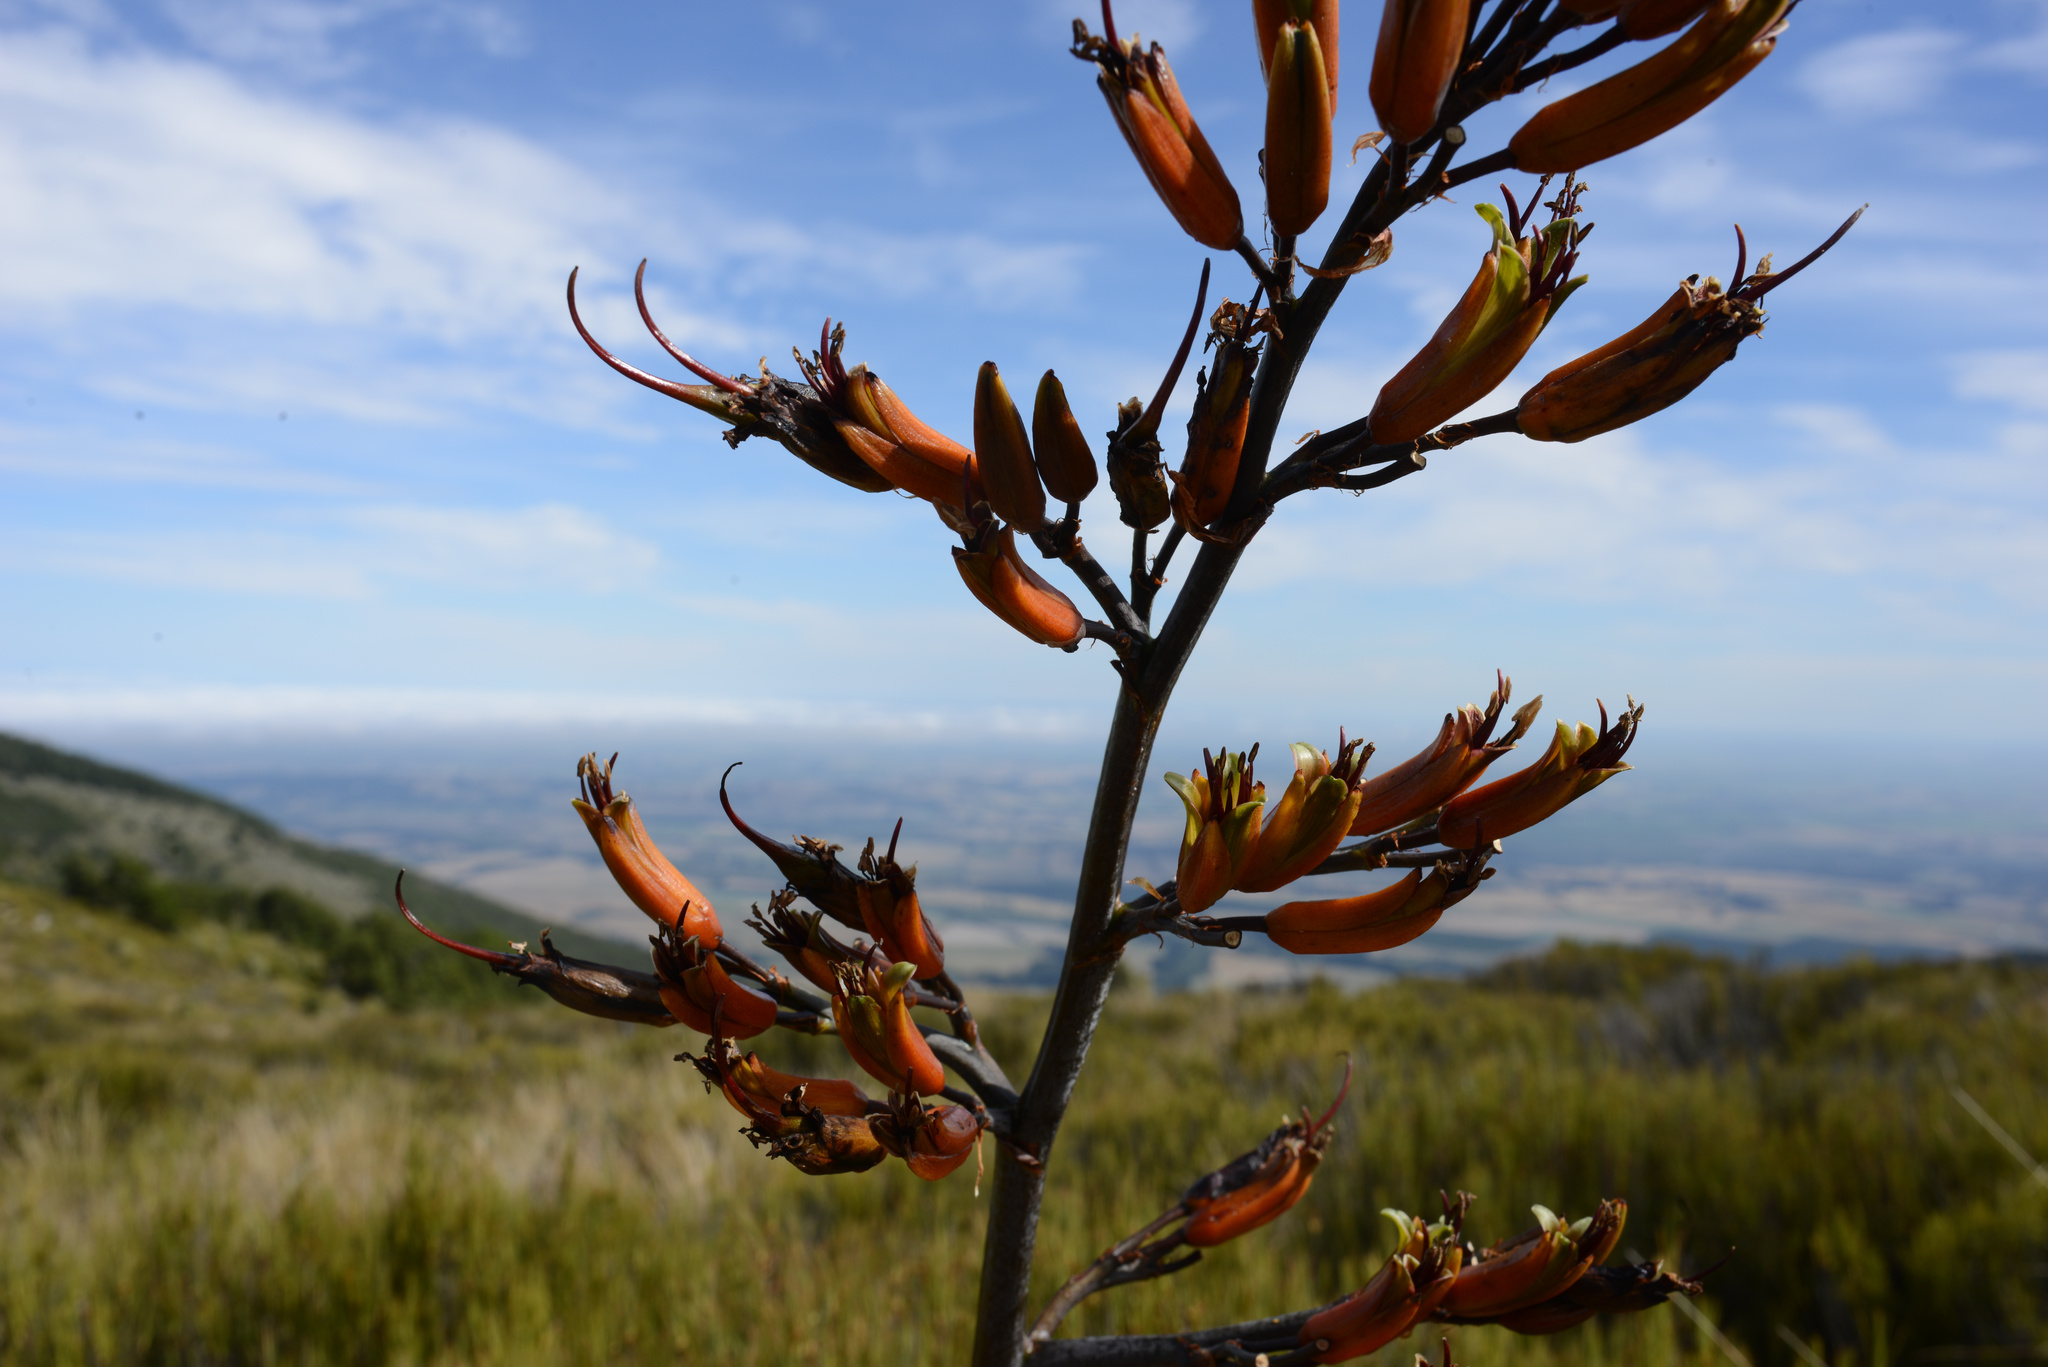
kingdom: Plantae
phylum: Tracheophyta
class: Liliopsida
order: Asparagales
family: Asphodelaceae
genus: Phormium
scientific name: Phormium tenax
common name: New zealand flax
